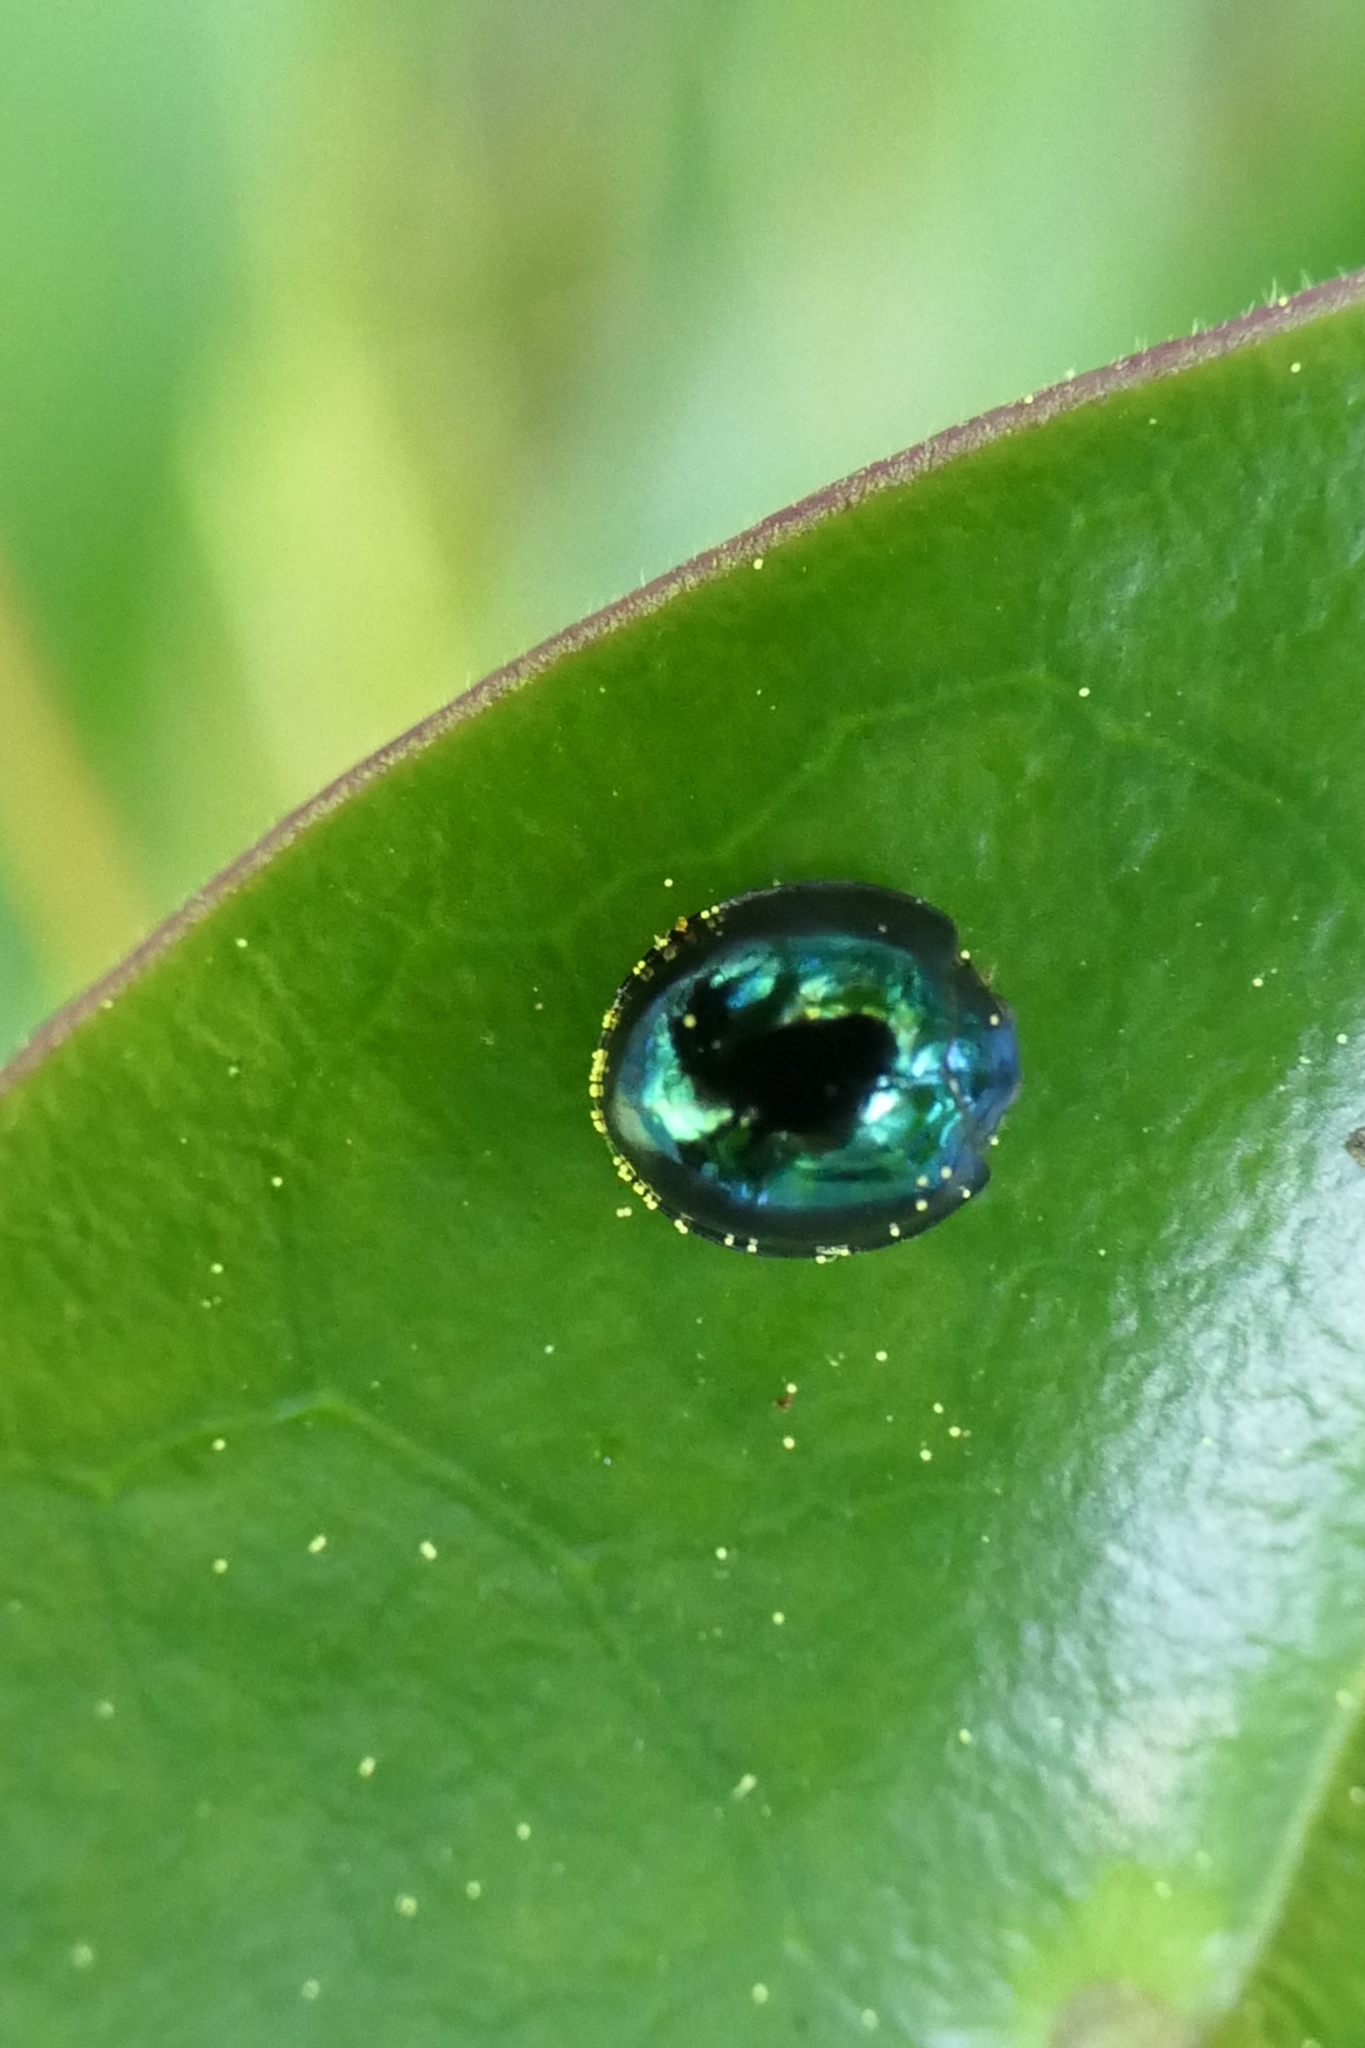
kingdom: Animalia
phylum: Arthropoda
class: Insecta
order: Coleoptera
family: Coccinellidae
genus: Halmus
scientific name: Halmus chalybeus
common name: Steel blue ladybird beetle
